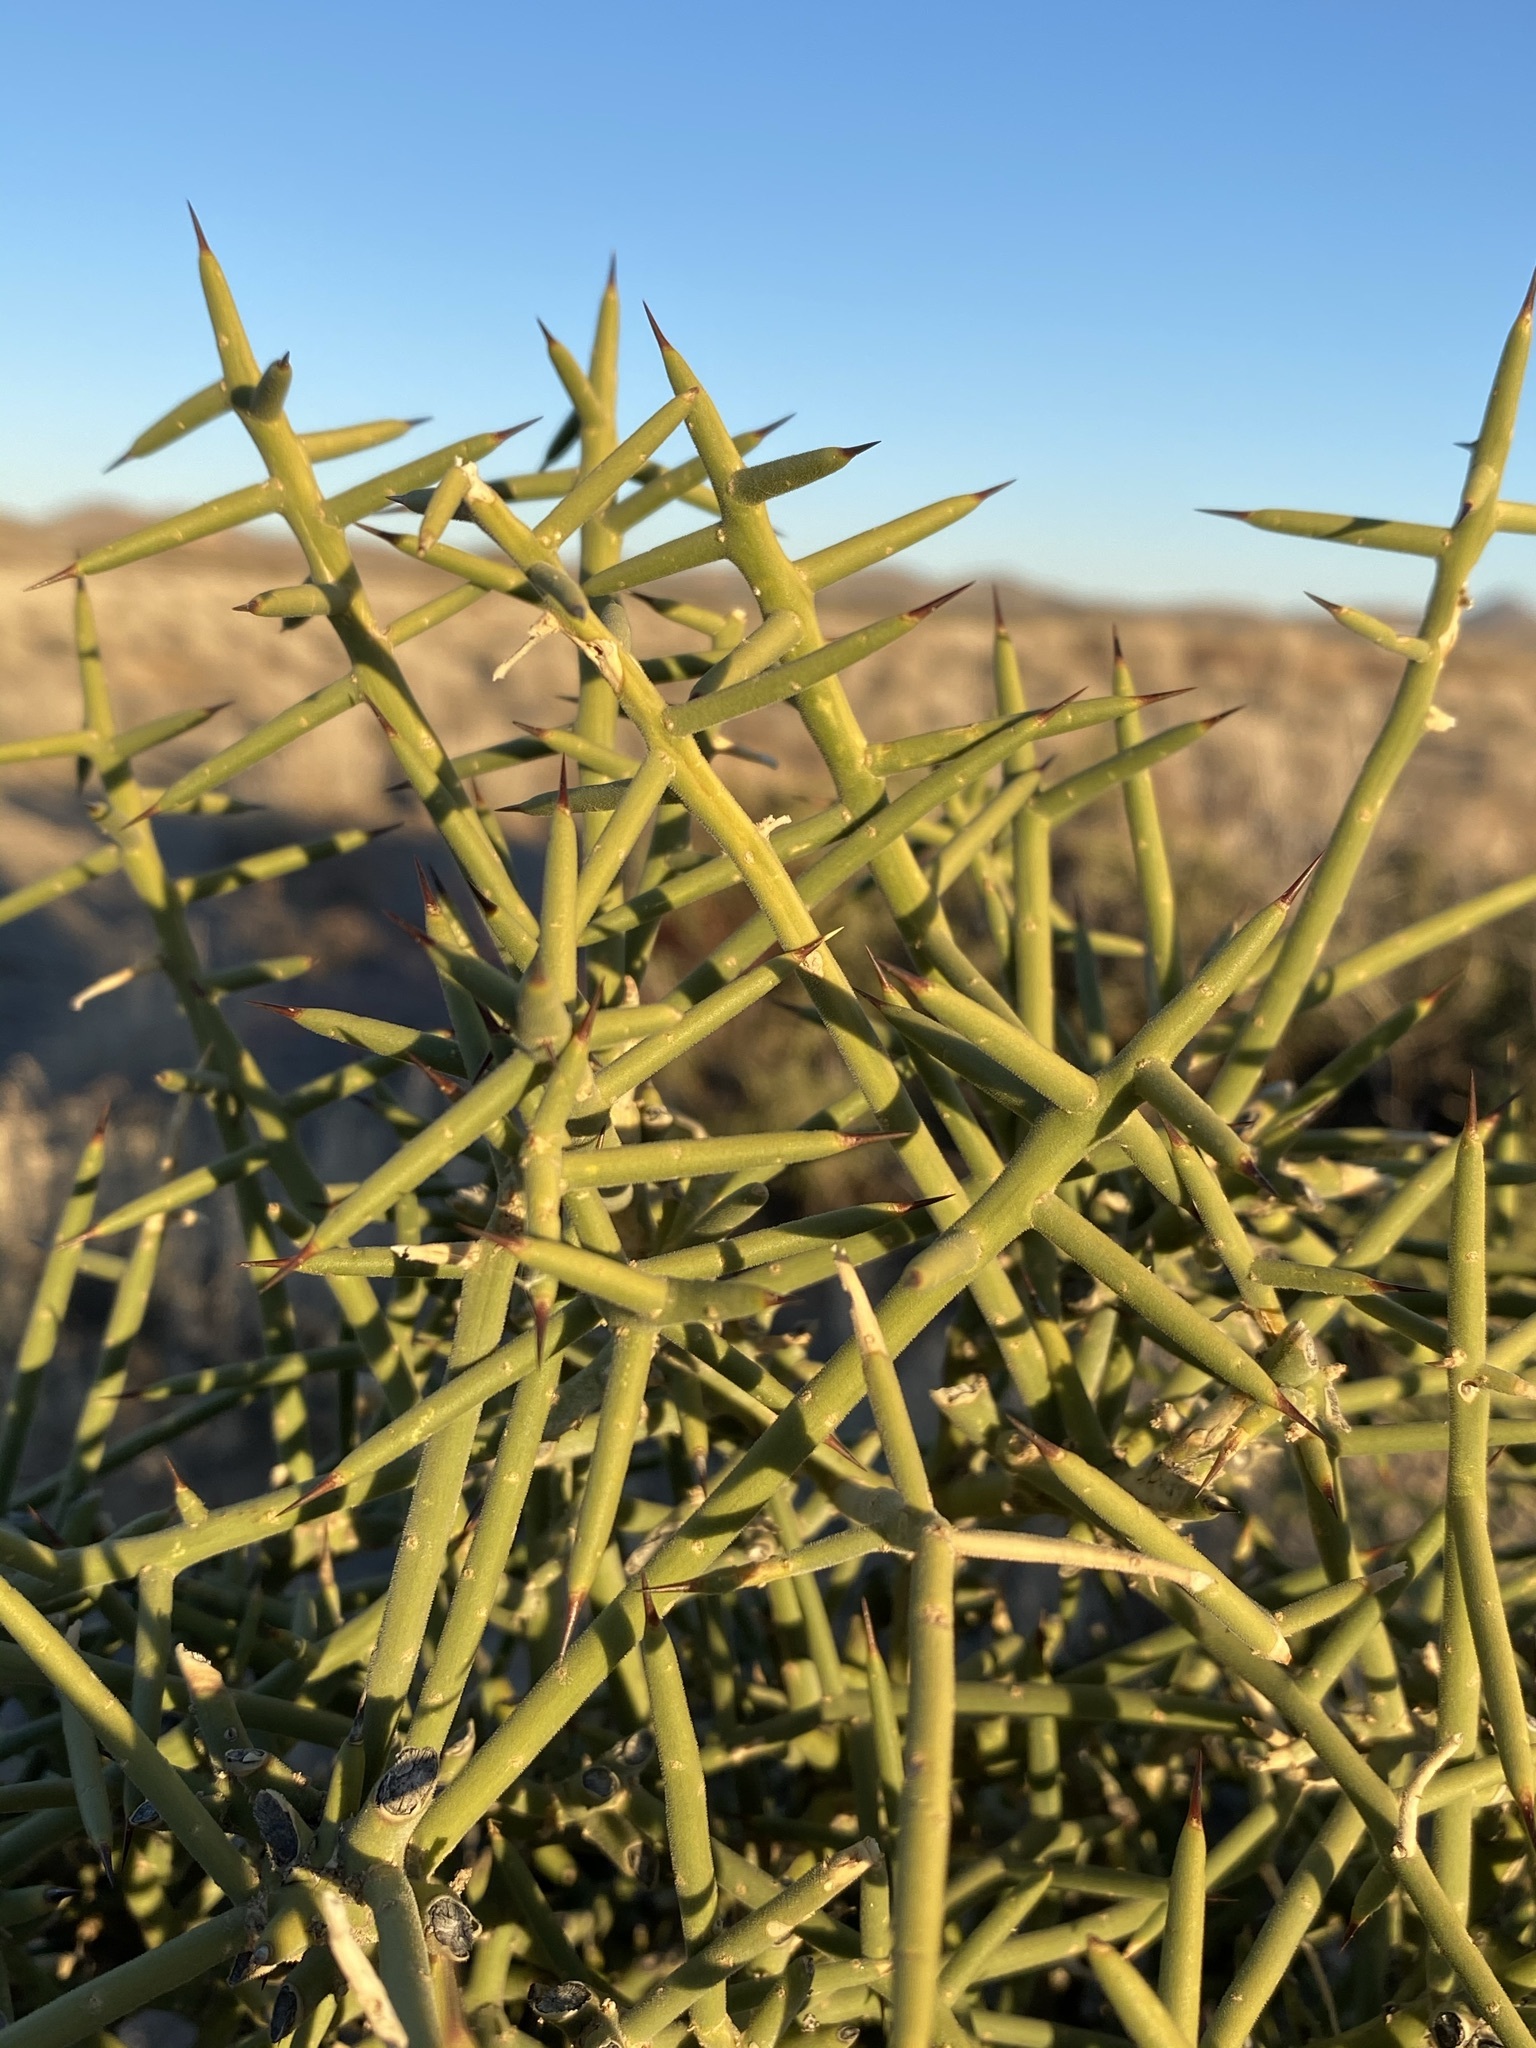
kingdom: Plantae
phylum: Tracheophyta
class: Magnoliopsida
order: Brassicales
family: Koeberliniaceae
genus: Koeberlinia
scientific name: Koeberlinia spinosa
